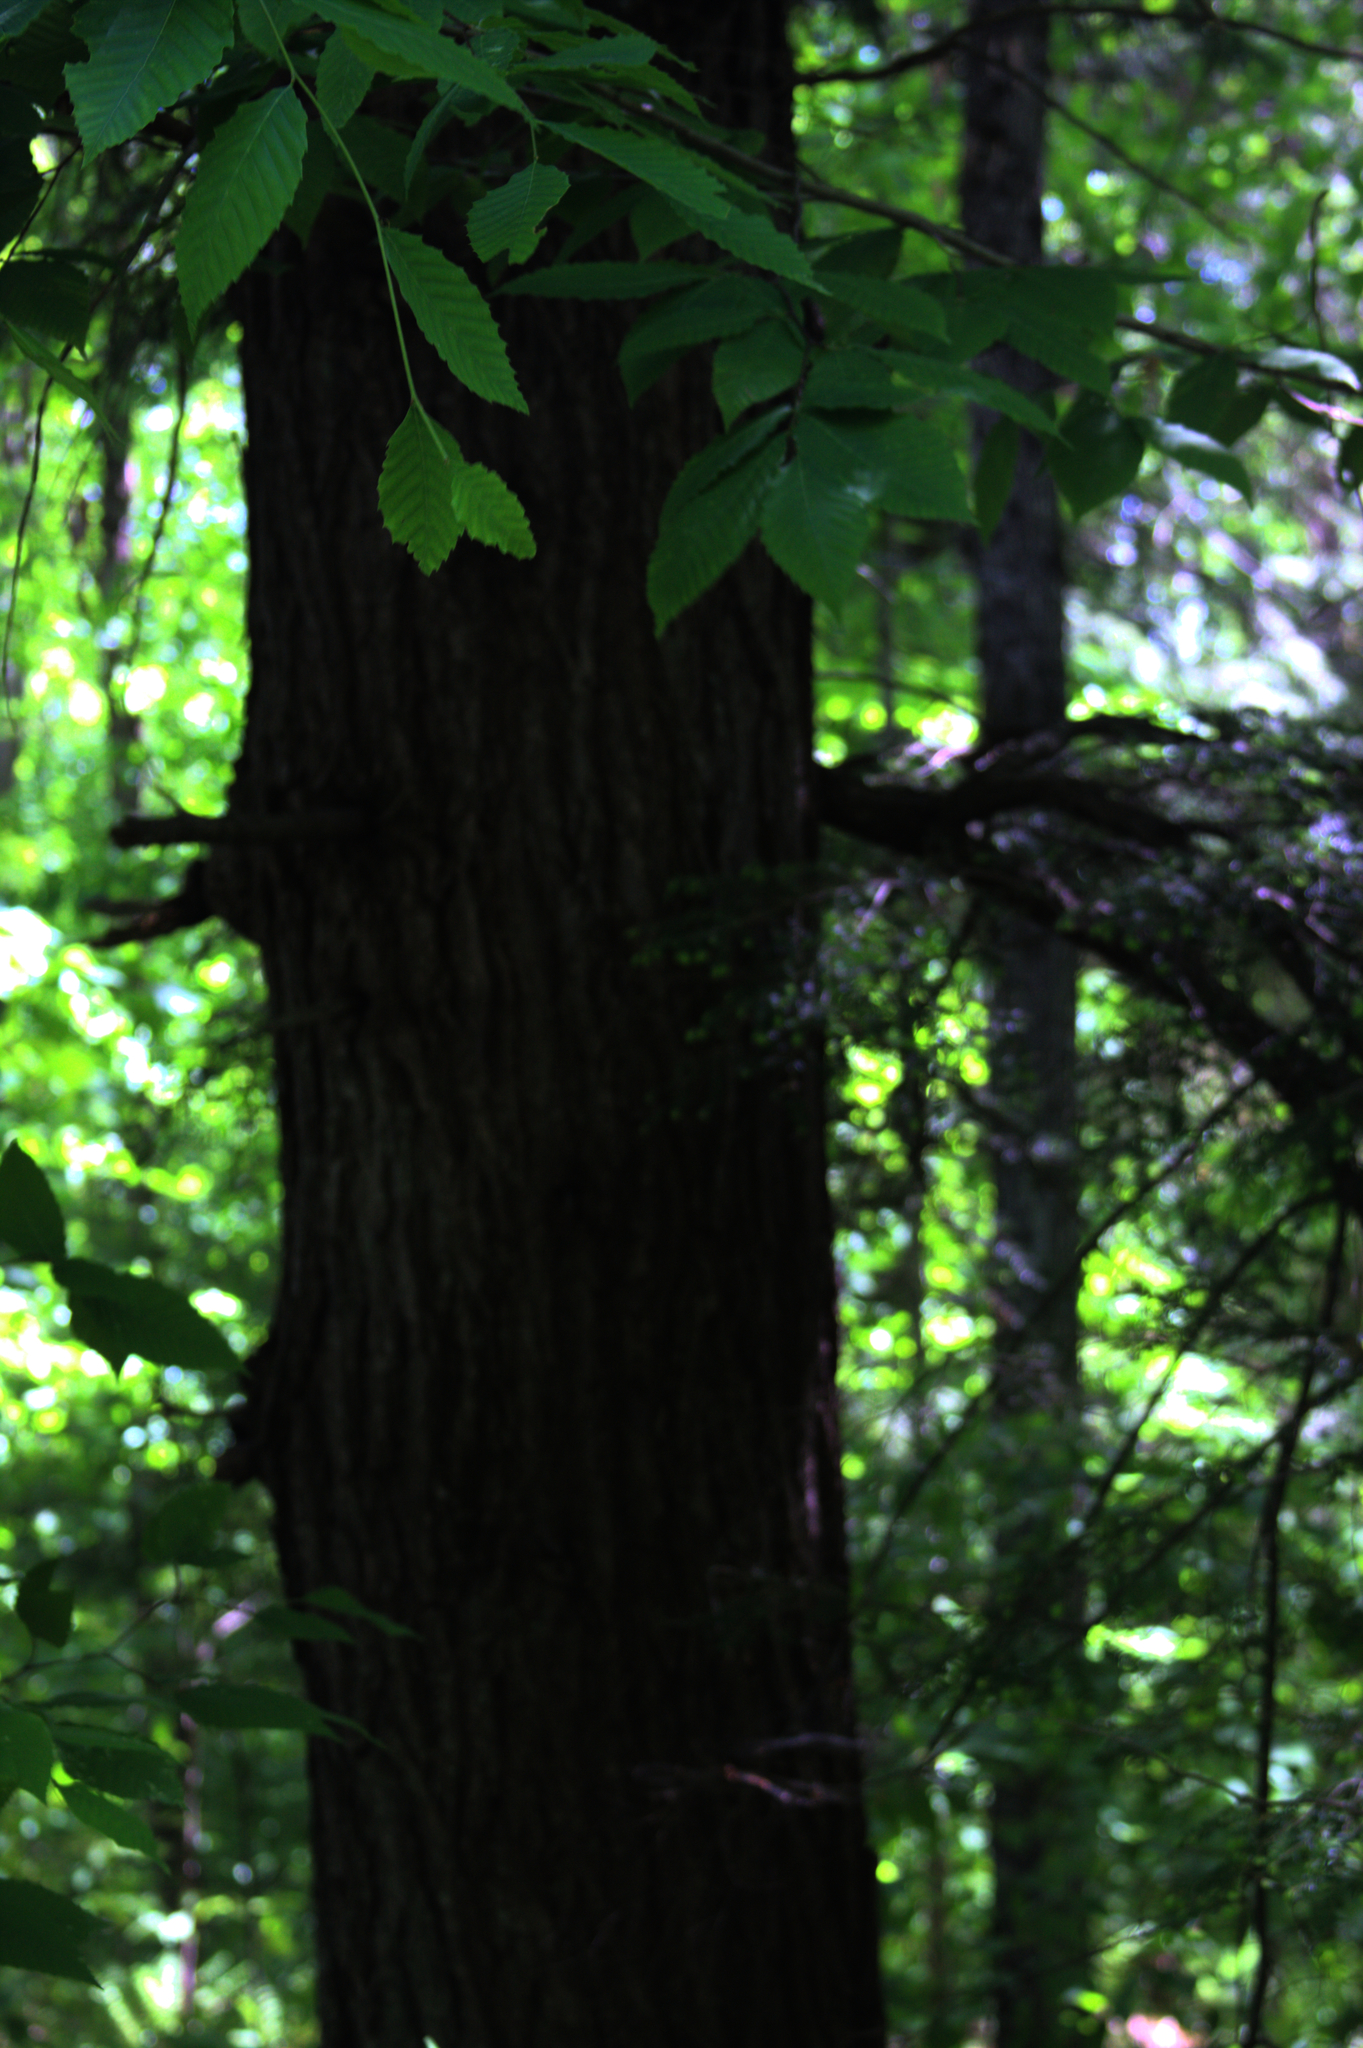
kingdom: Plantae
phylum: Tracheophyta
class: Pinopsida
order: Pinales
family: Pinaceae
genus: Tsuga
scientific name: Tsuga canadensis
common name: Eastern hemlock
